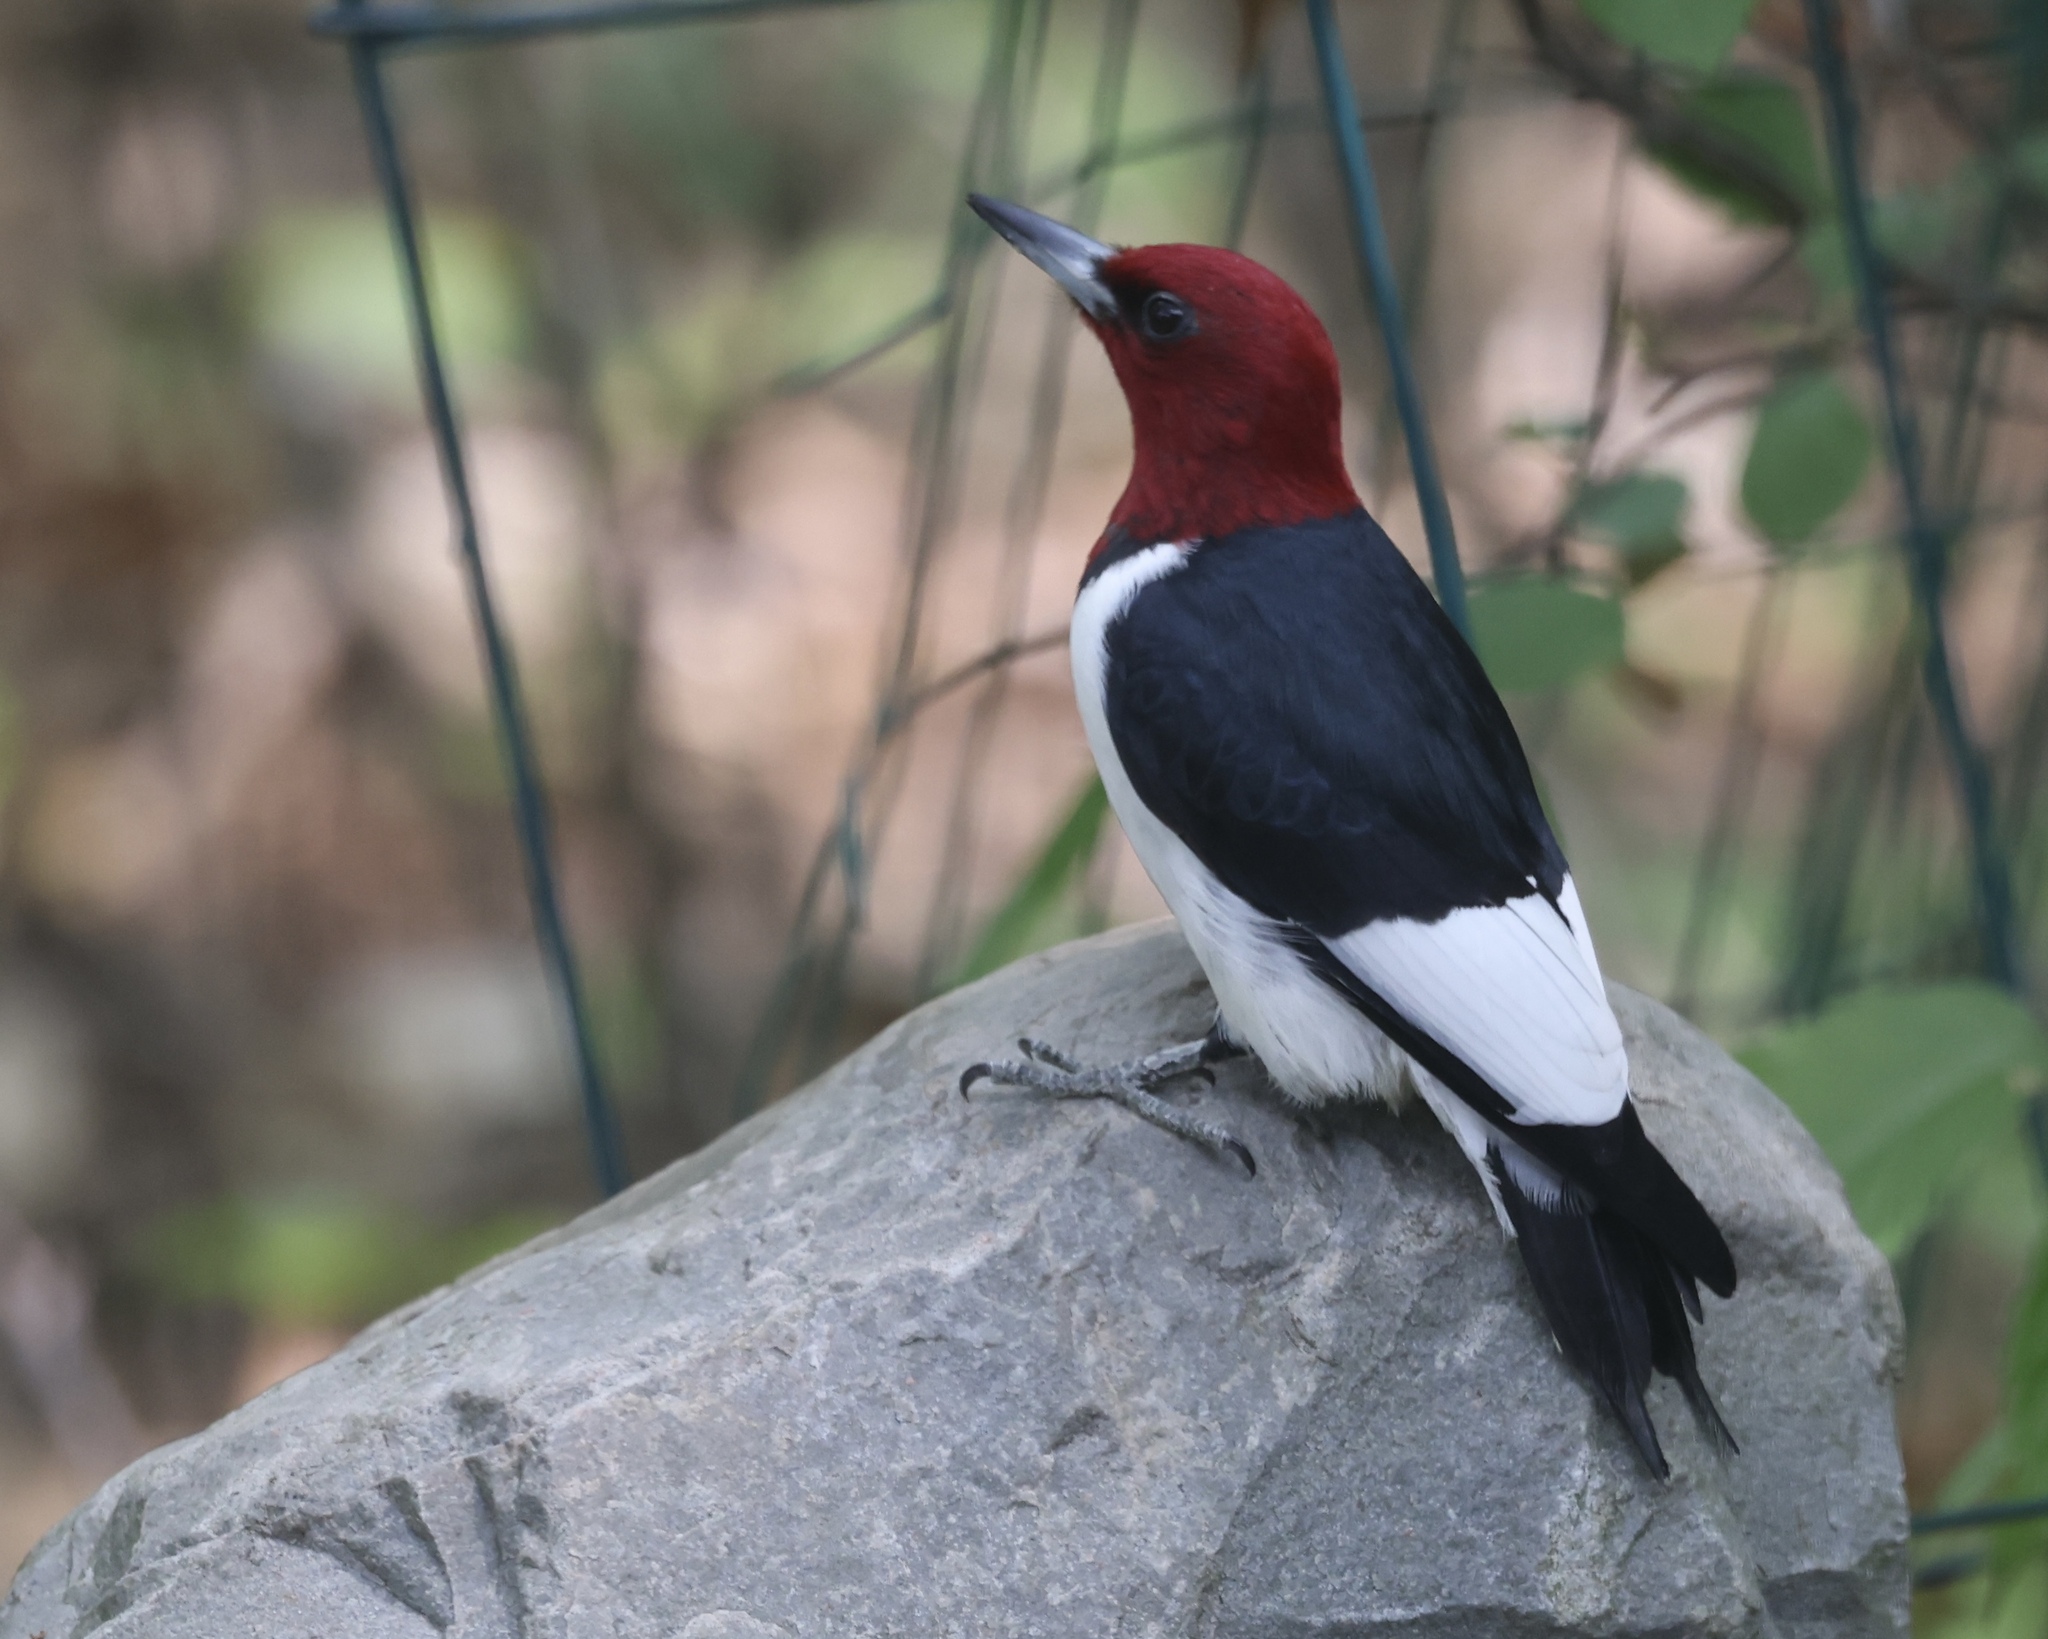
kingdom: Animalia
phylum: Chordata
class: Aves
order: Piciformes
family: Picidae
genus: Melanerpes
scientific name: Melanerpes erythrocephalus
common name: Red-headed woodpecker
